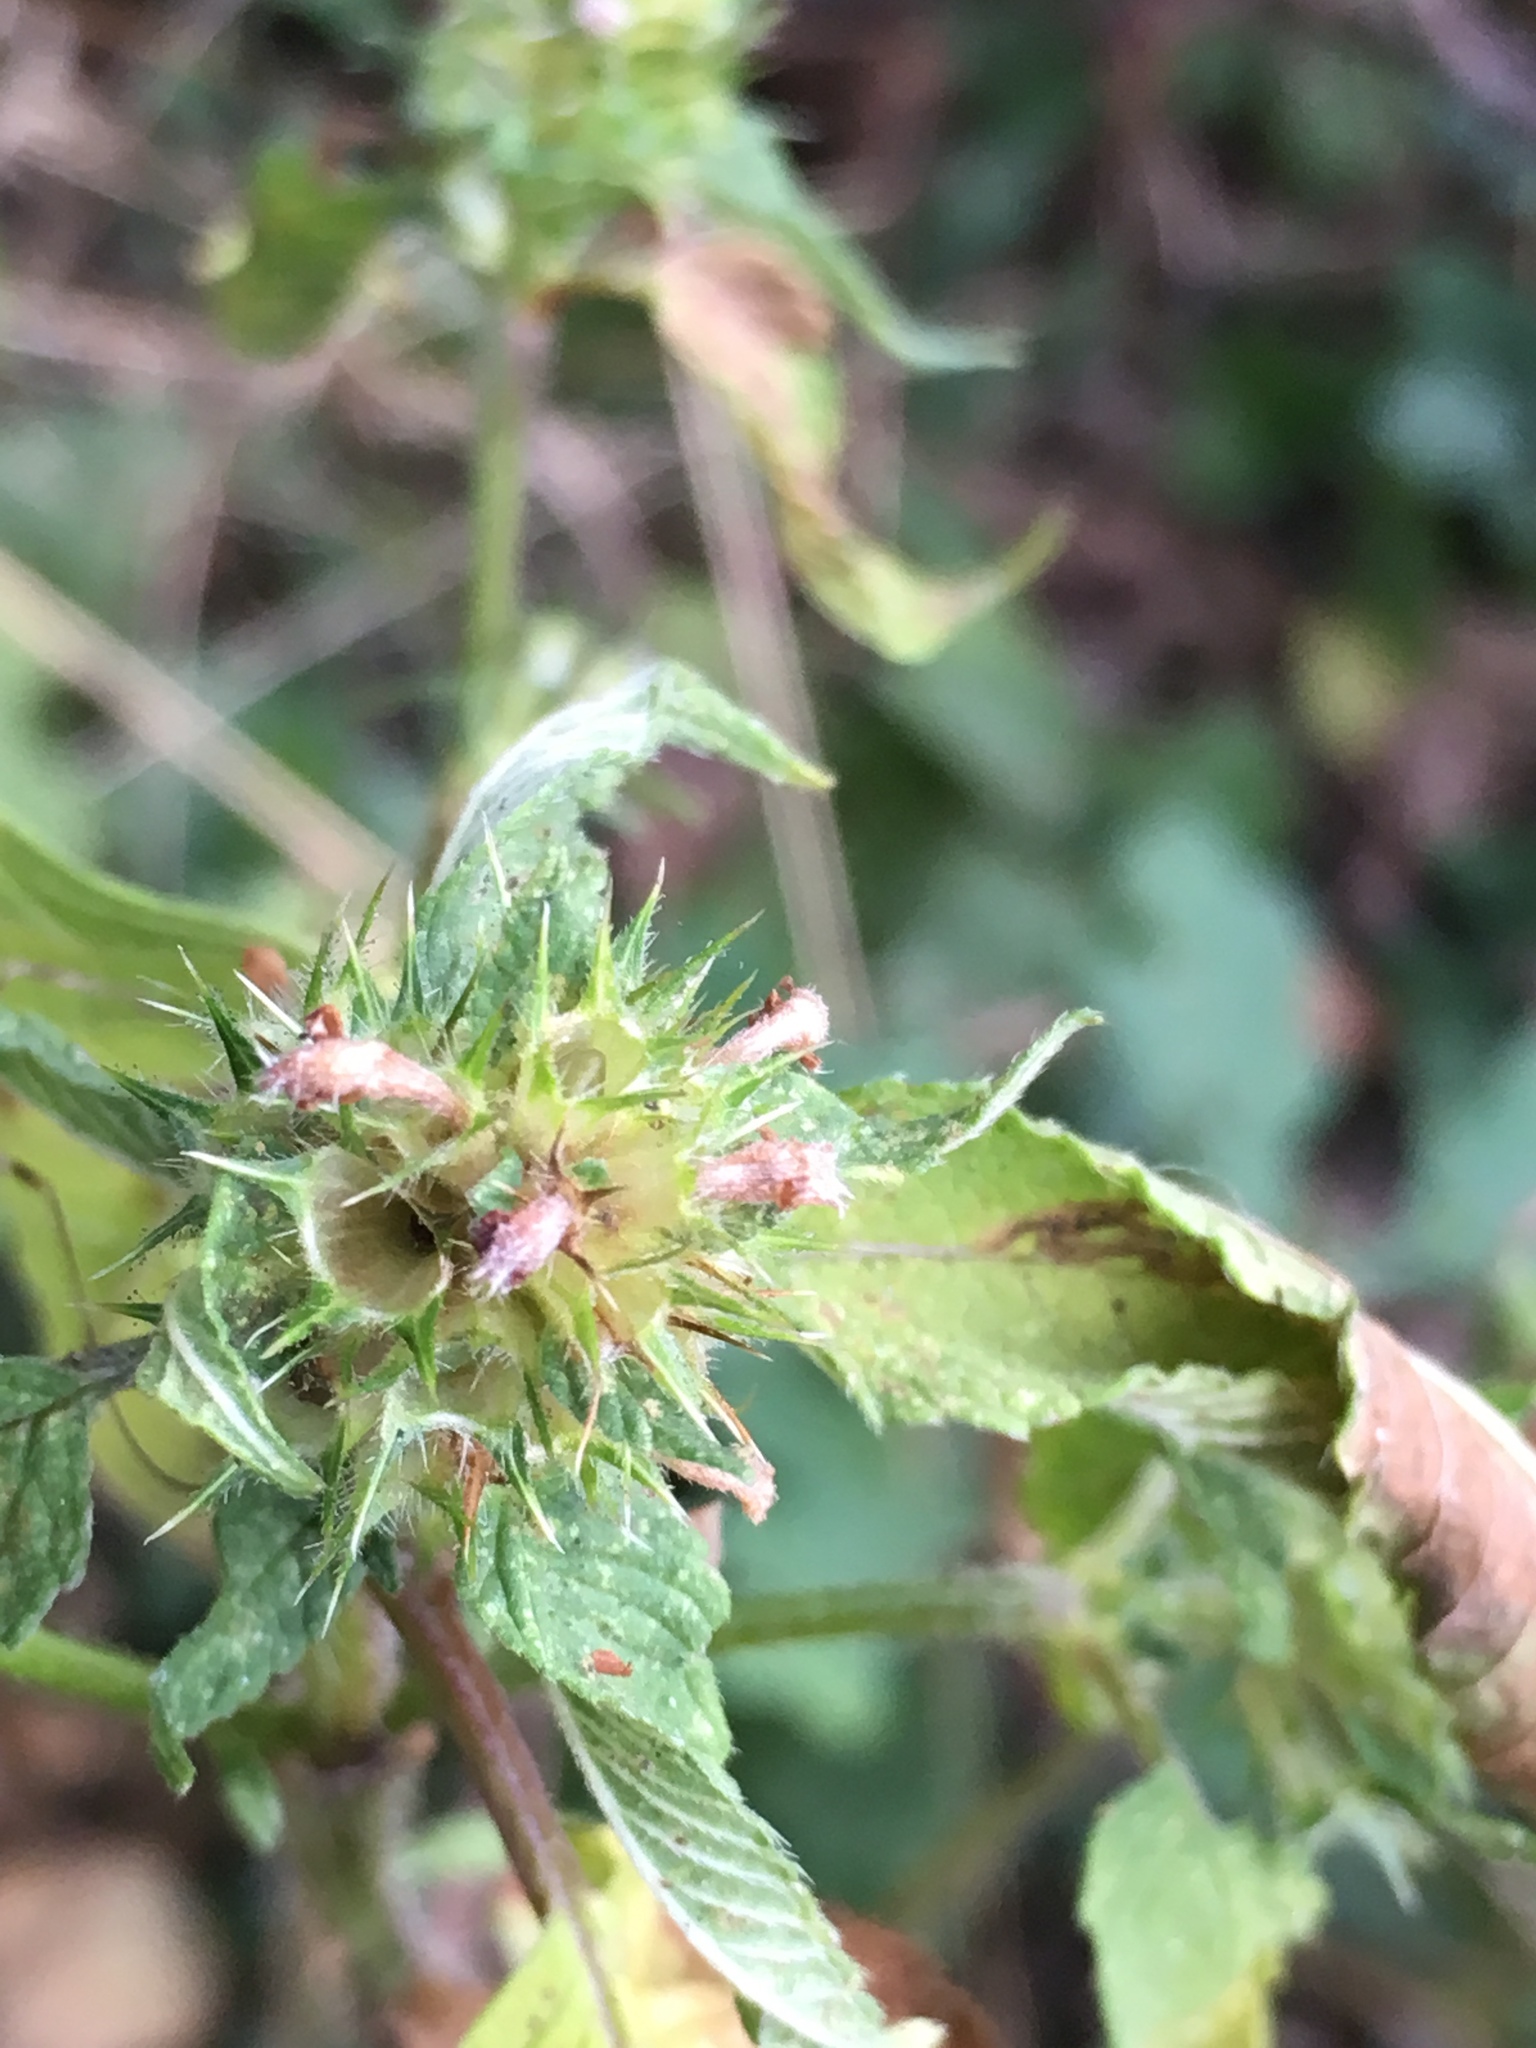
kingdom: Plantae
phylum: Tracheophyta
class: Magnoliopsida
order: Lamiales
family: Lamiaceae
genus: Galeopsis
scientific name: Galeopsis tetrahit
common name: Common hemp-nettle
